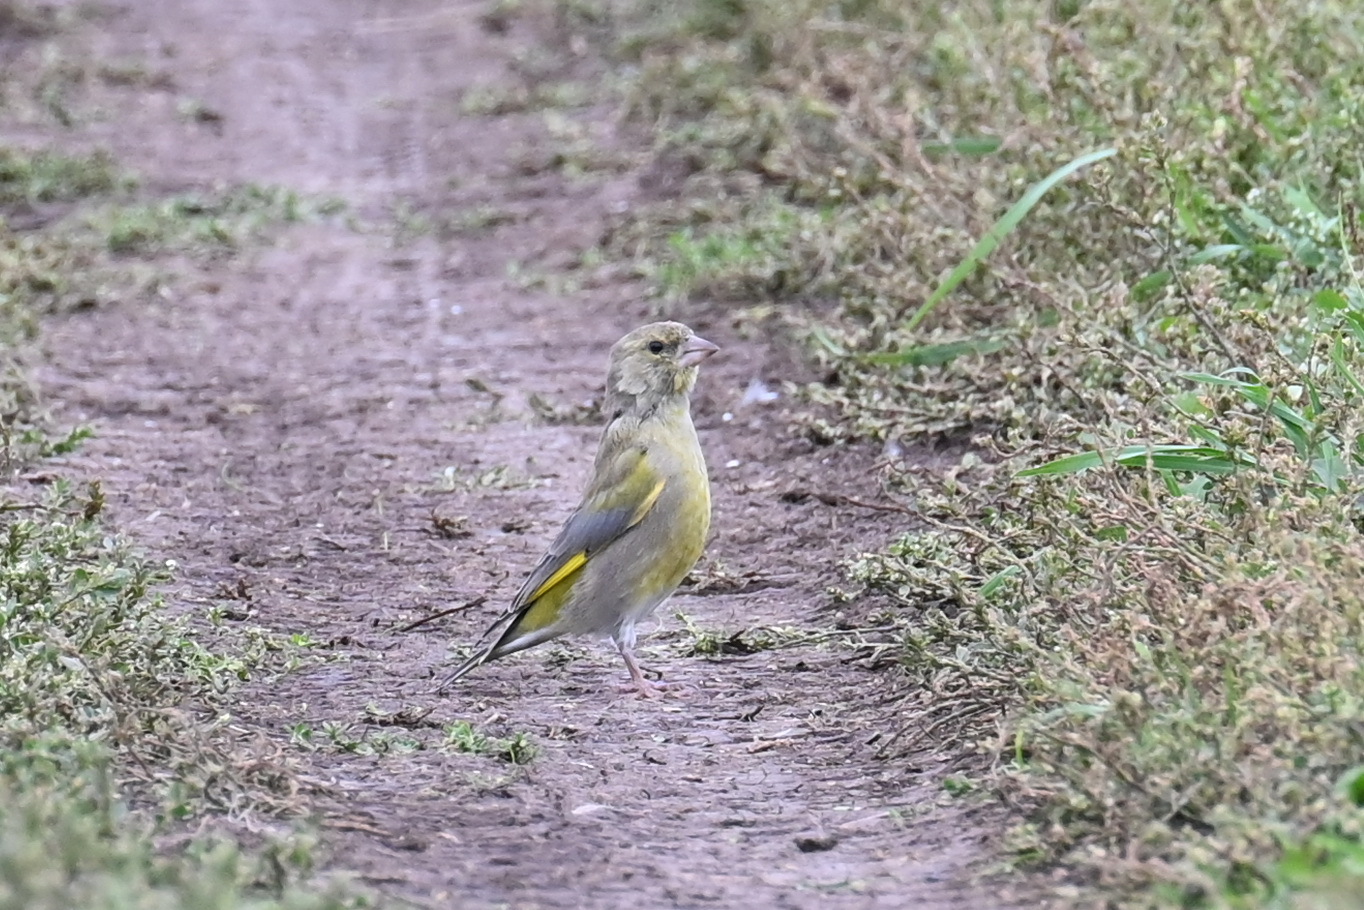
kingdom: Plantae
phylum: Tracheophyta
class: Liliopsida
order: Poales
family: Poaceae
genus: Chloris
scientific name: Chloris chloris
